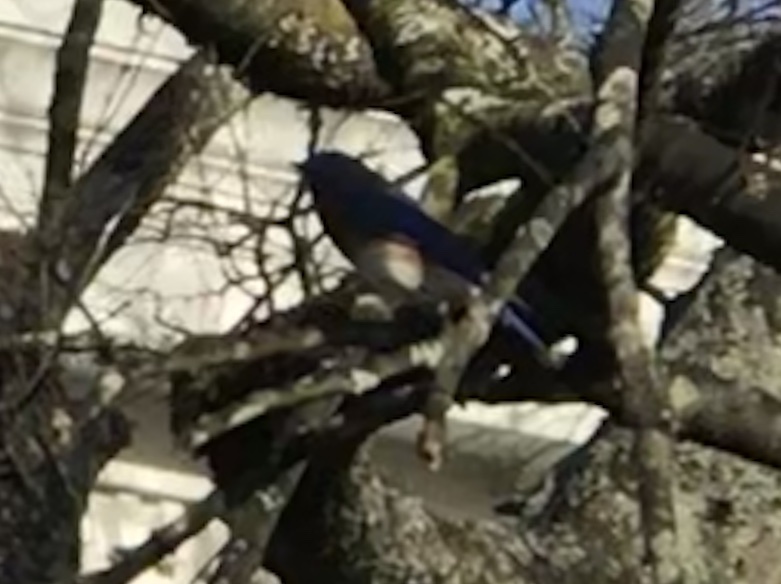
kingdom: Animalia
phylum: Chordata
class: Aves
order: Passeriformes
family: Turdidae
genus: Sialia
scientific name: Sialia sialis
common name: Eastern bluebird
